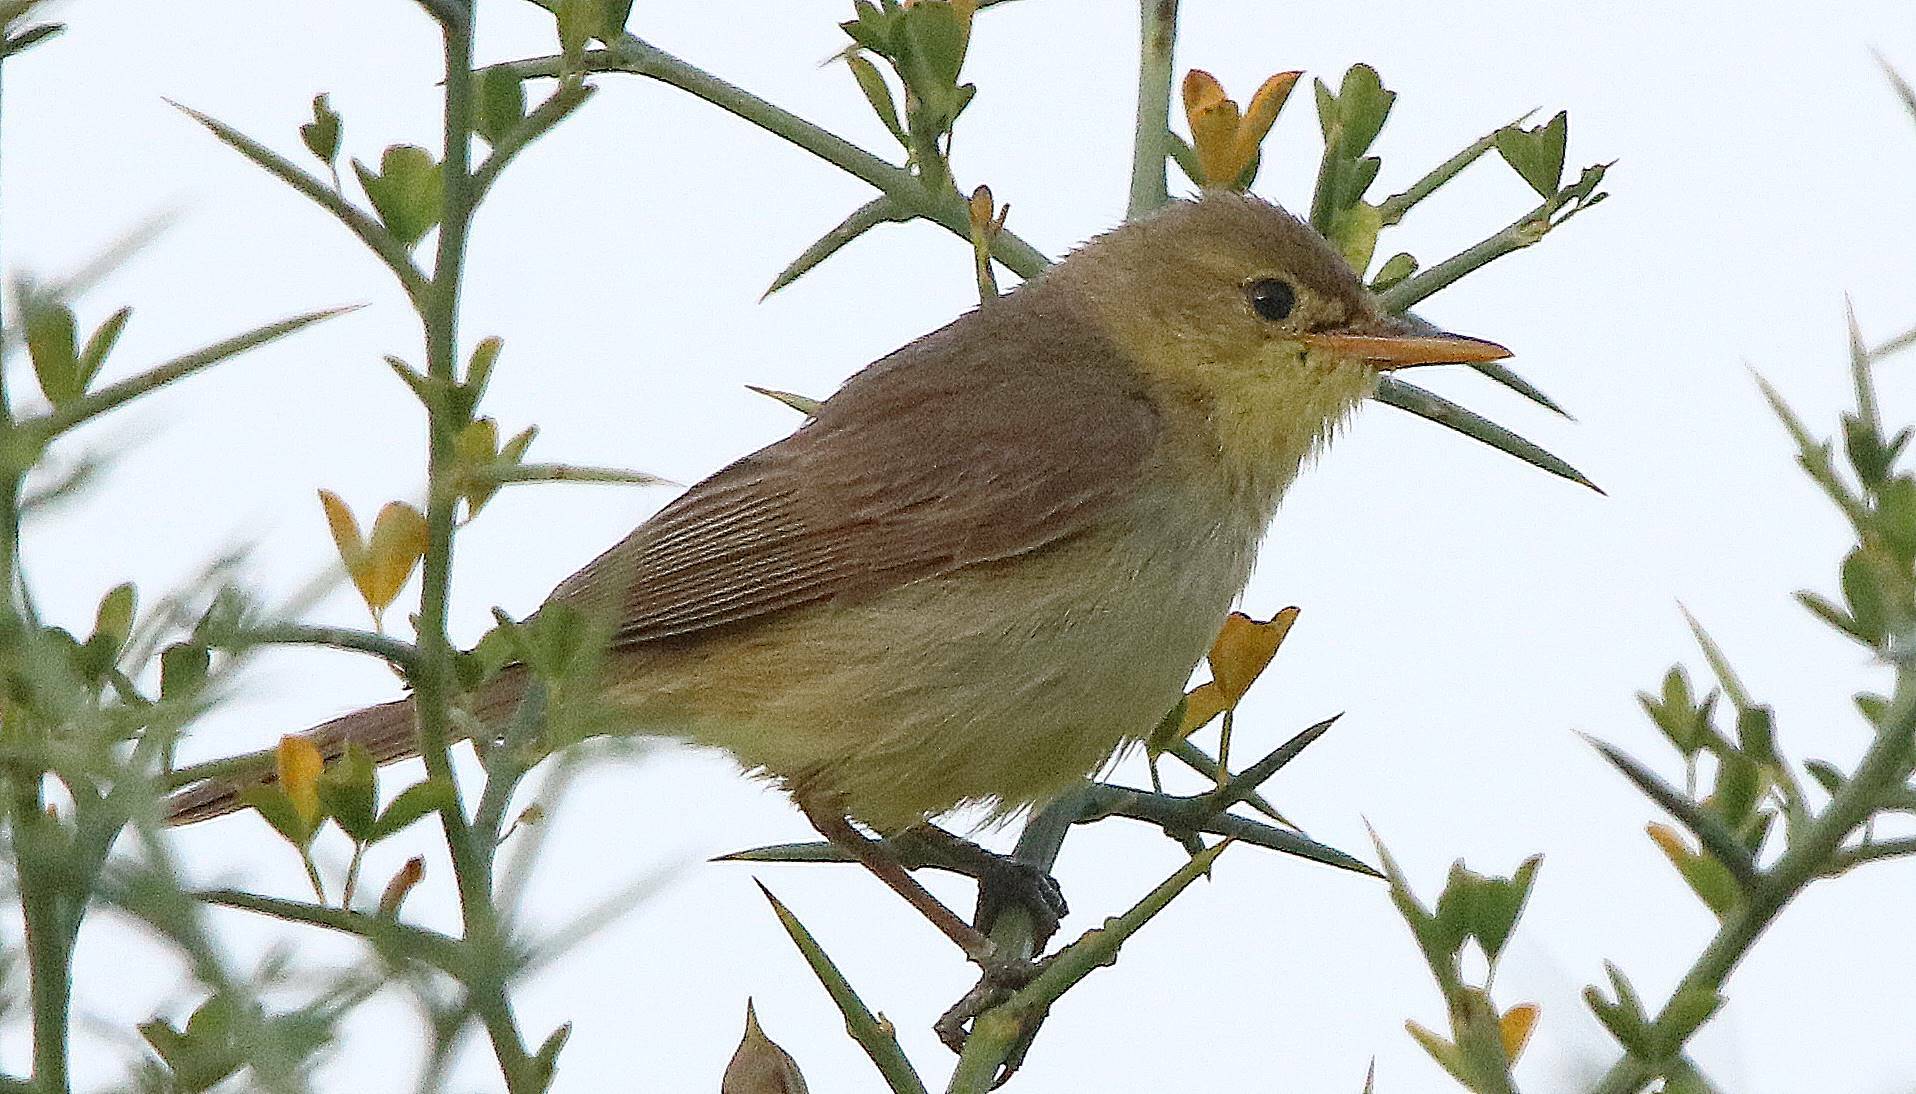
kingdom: Animalia
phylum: Chordata
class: Aves
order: Passeriformes
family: Acrocephalidae
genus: Hippolais
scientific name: Hippolais polyglotta
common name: Melodious warbler
